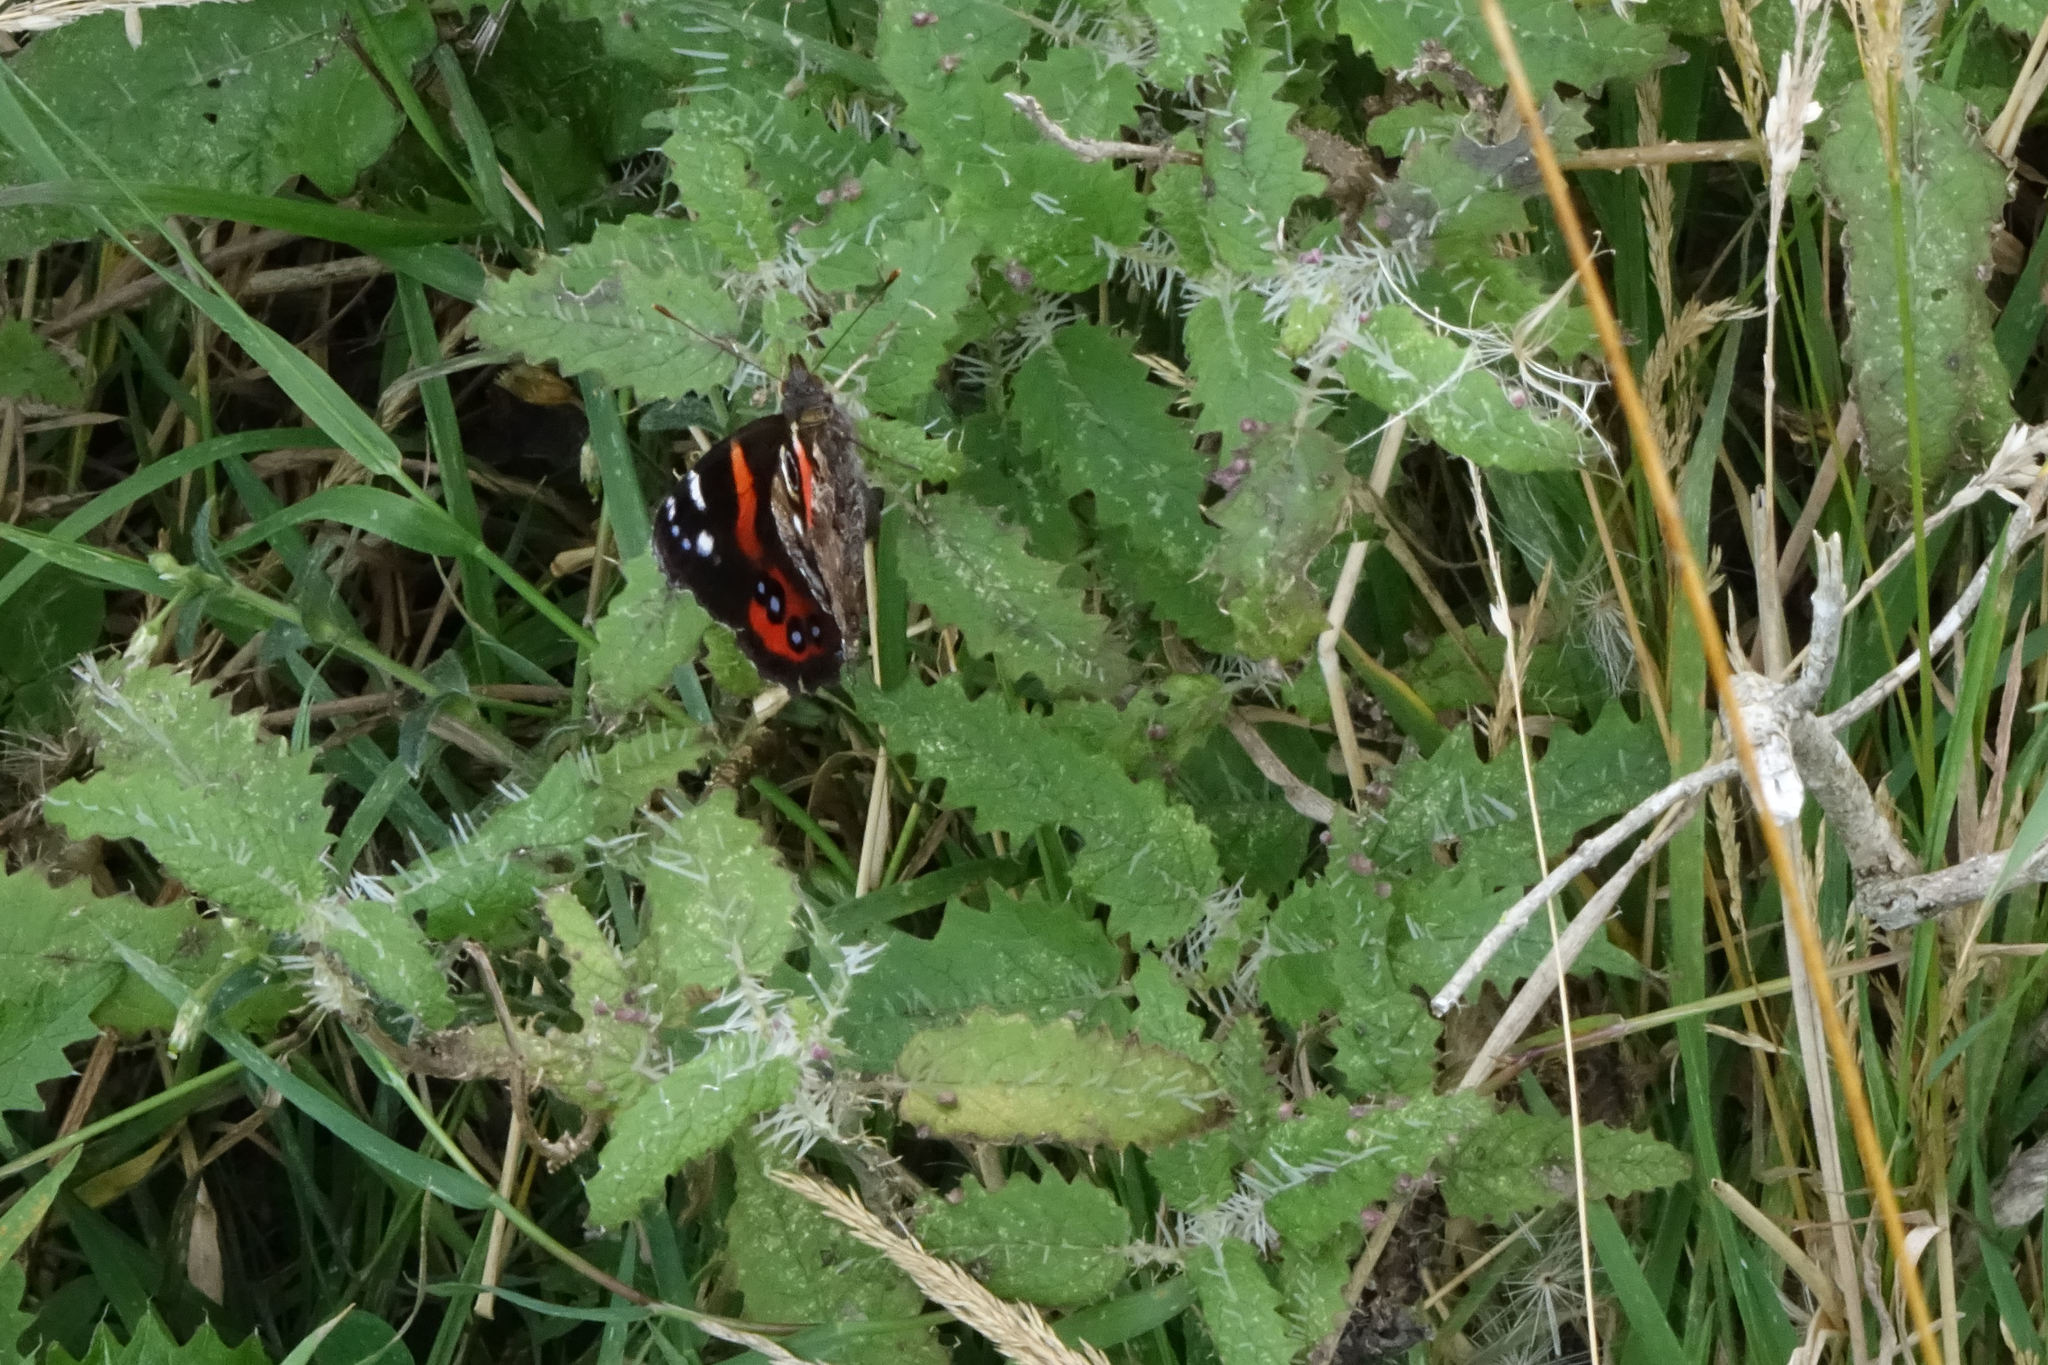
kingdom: Animalia
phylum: Arthropoda
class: Insecta
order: Lepidoptera
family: Nymphalidae
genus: Vanessa
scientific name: Vanessa gonerilla
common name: New zealand red admiral
